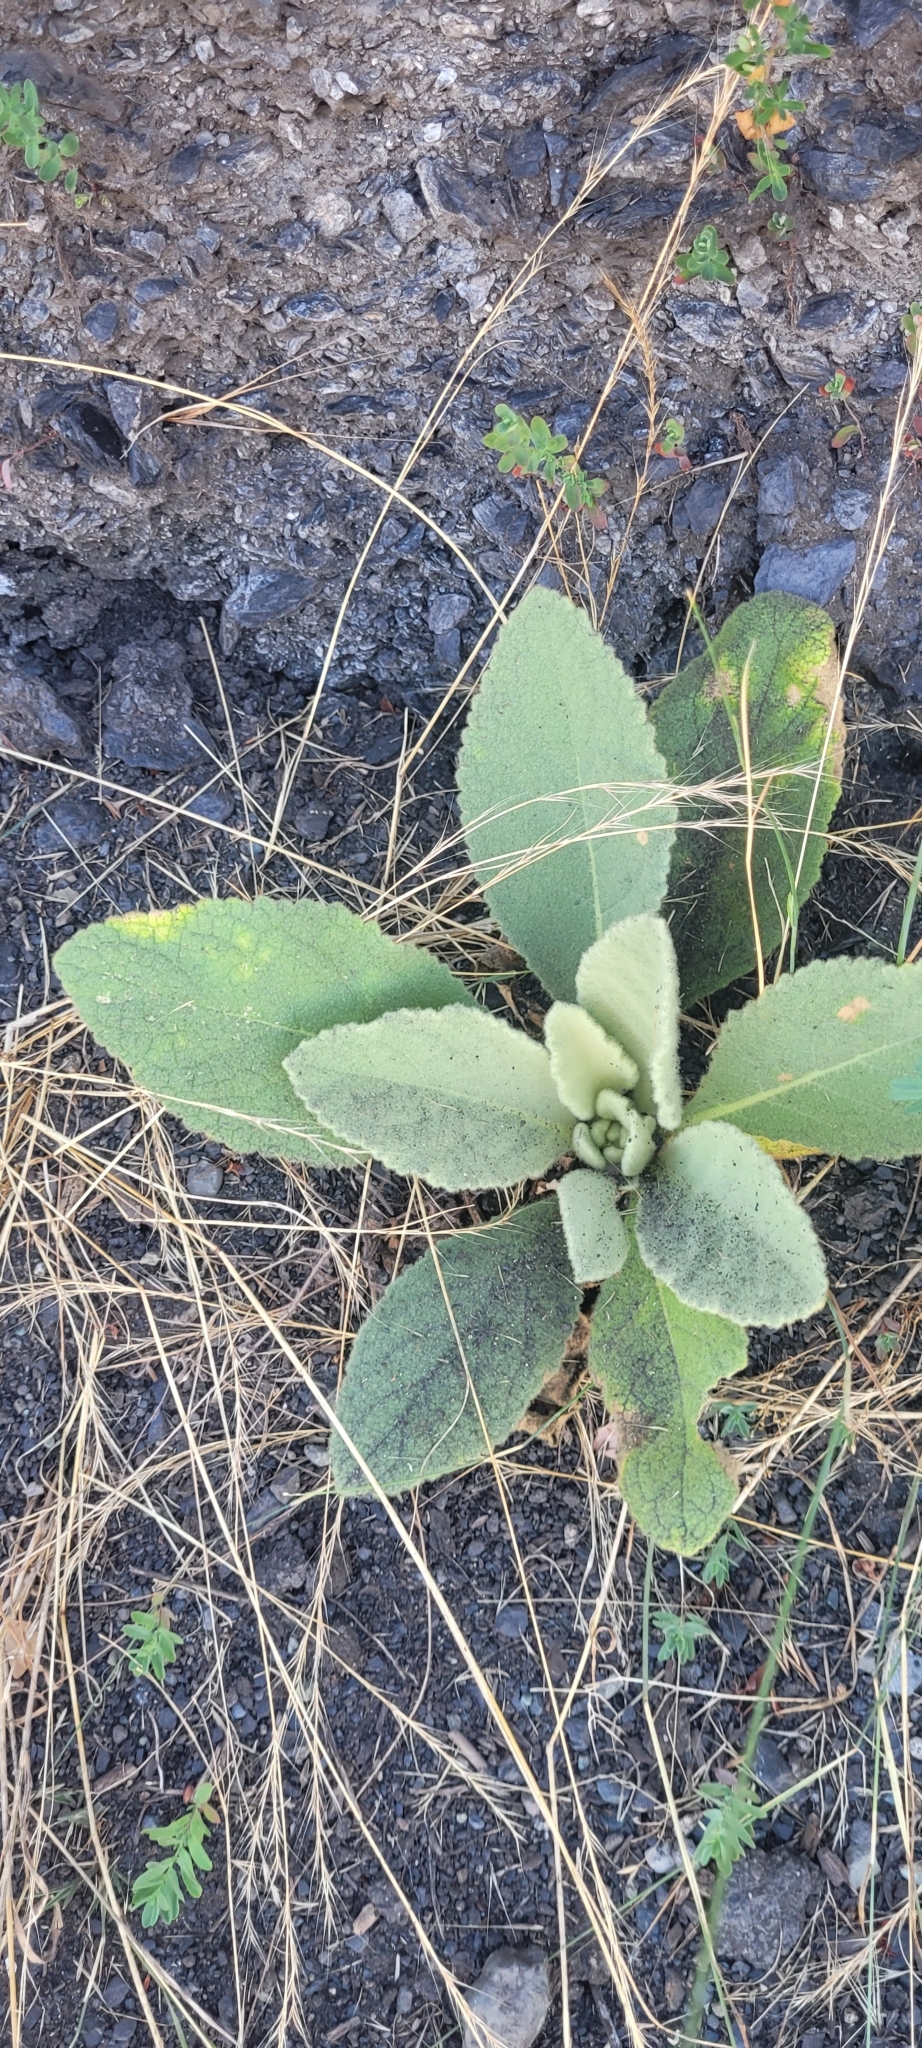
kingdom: Plantae
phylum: Tracheophyta
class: Magnoliopsida
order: Lamiales
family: Scrophulariaceae
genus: Verbascum
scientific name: Verbascum thapsus
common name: Common mullein
